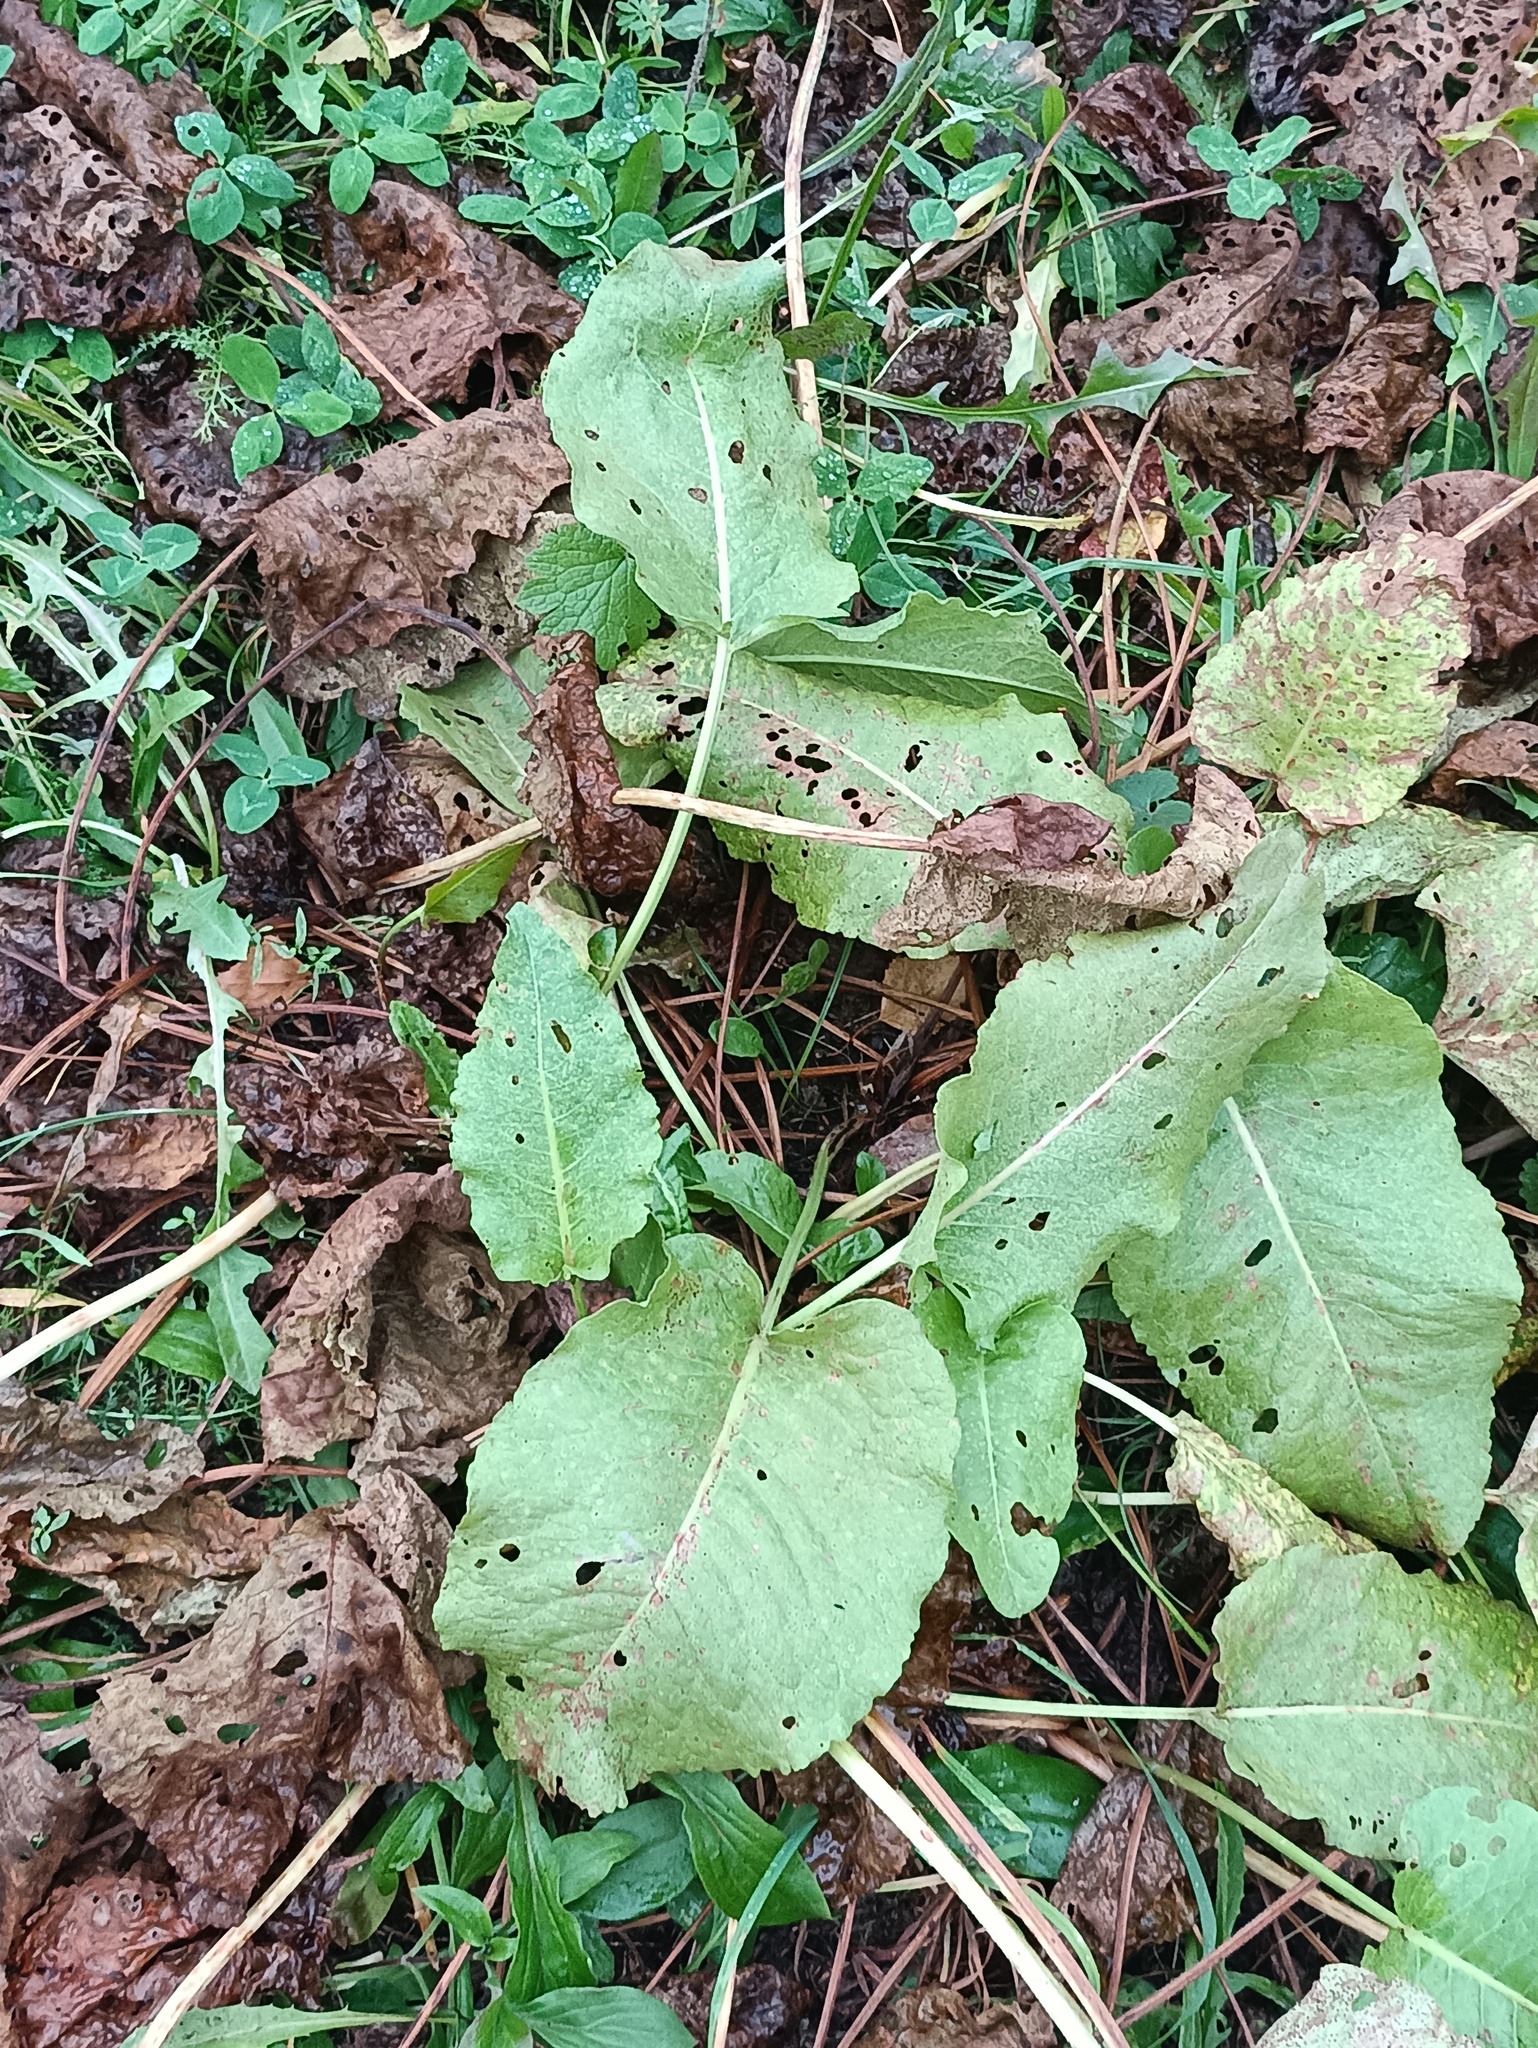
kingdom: Plantae
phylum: Tracheophyta
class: Magnoliopsida
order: Caryophyllales
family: Polygonaceae
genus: Rumex
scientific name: Rumex confertus
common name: Russian dock
